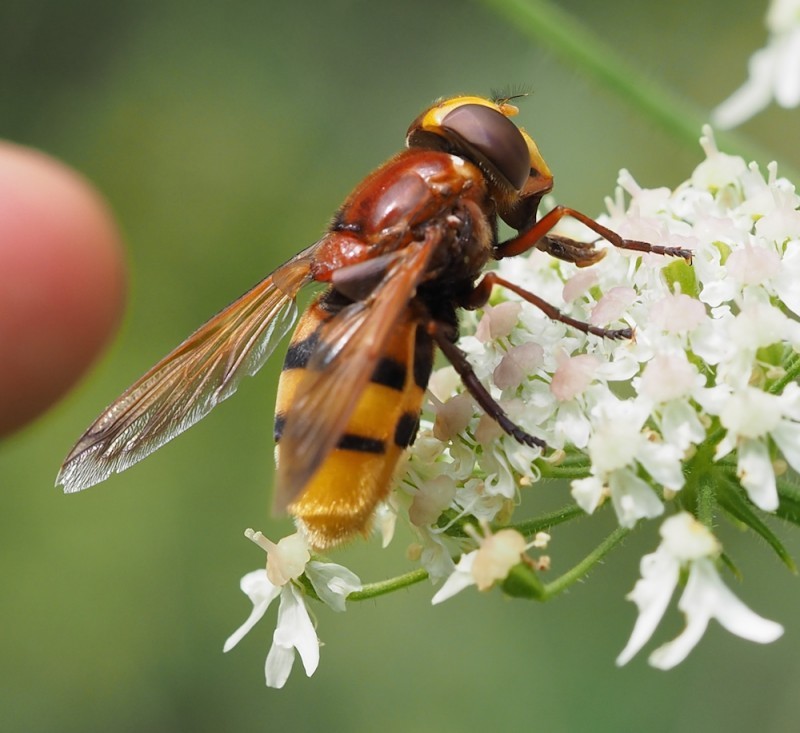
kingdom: Animalia
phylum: Arthropoda
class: Insecta
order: Diptera
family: Syrphidae
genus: Volucella
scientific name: Volucella zonaria
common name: Hornet hoverfly
